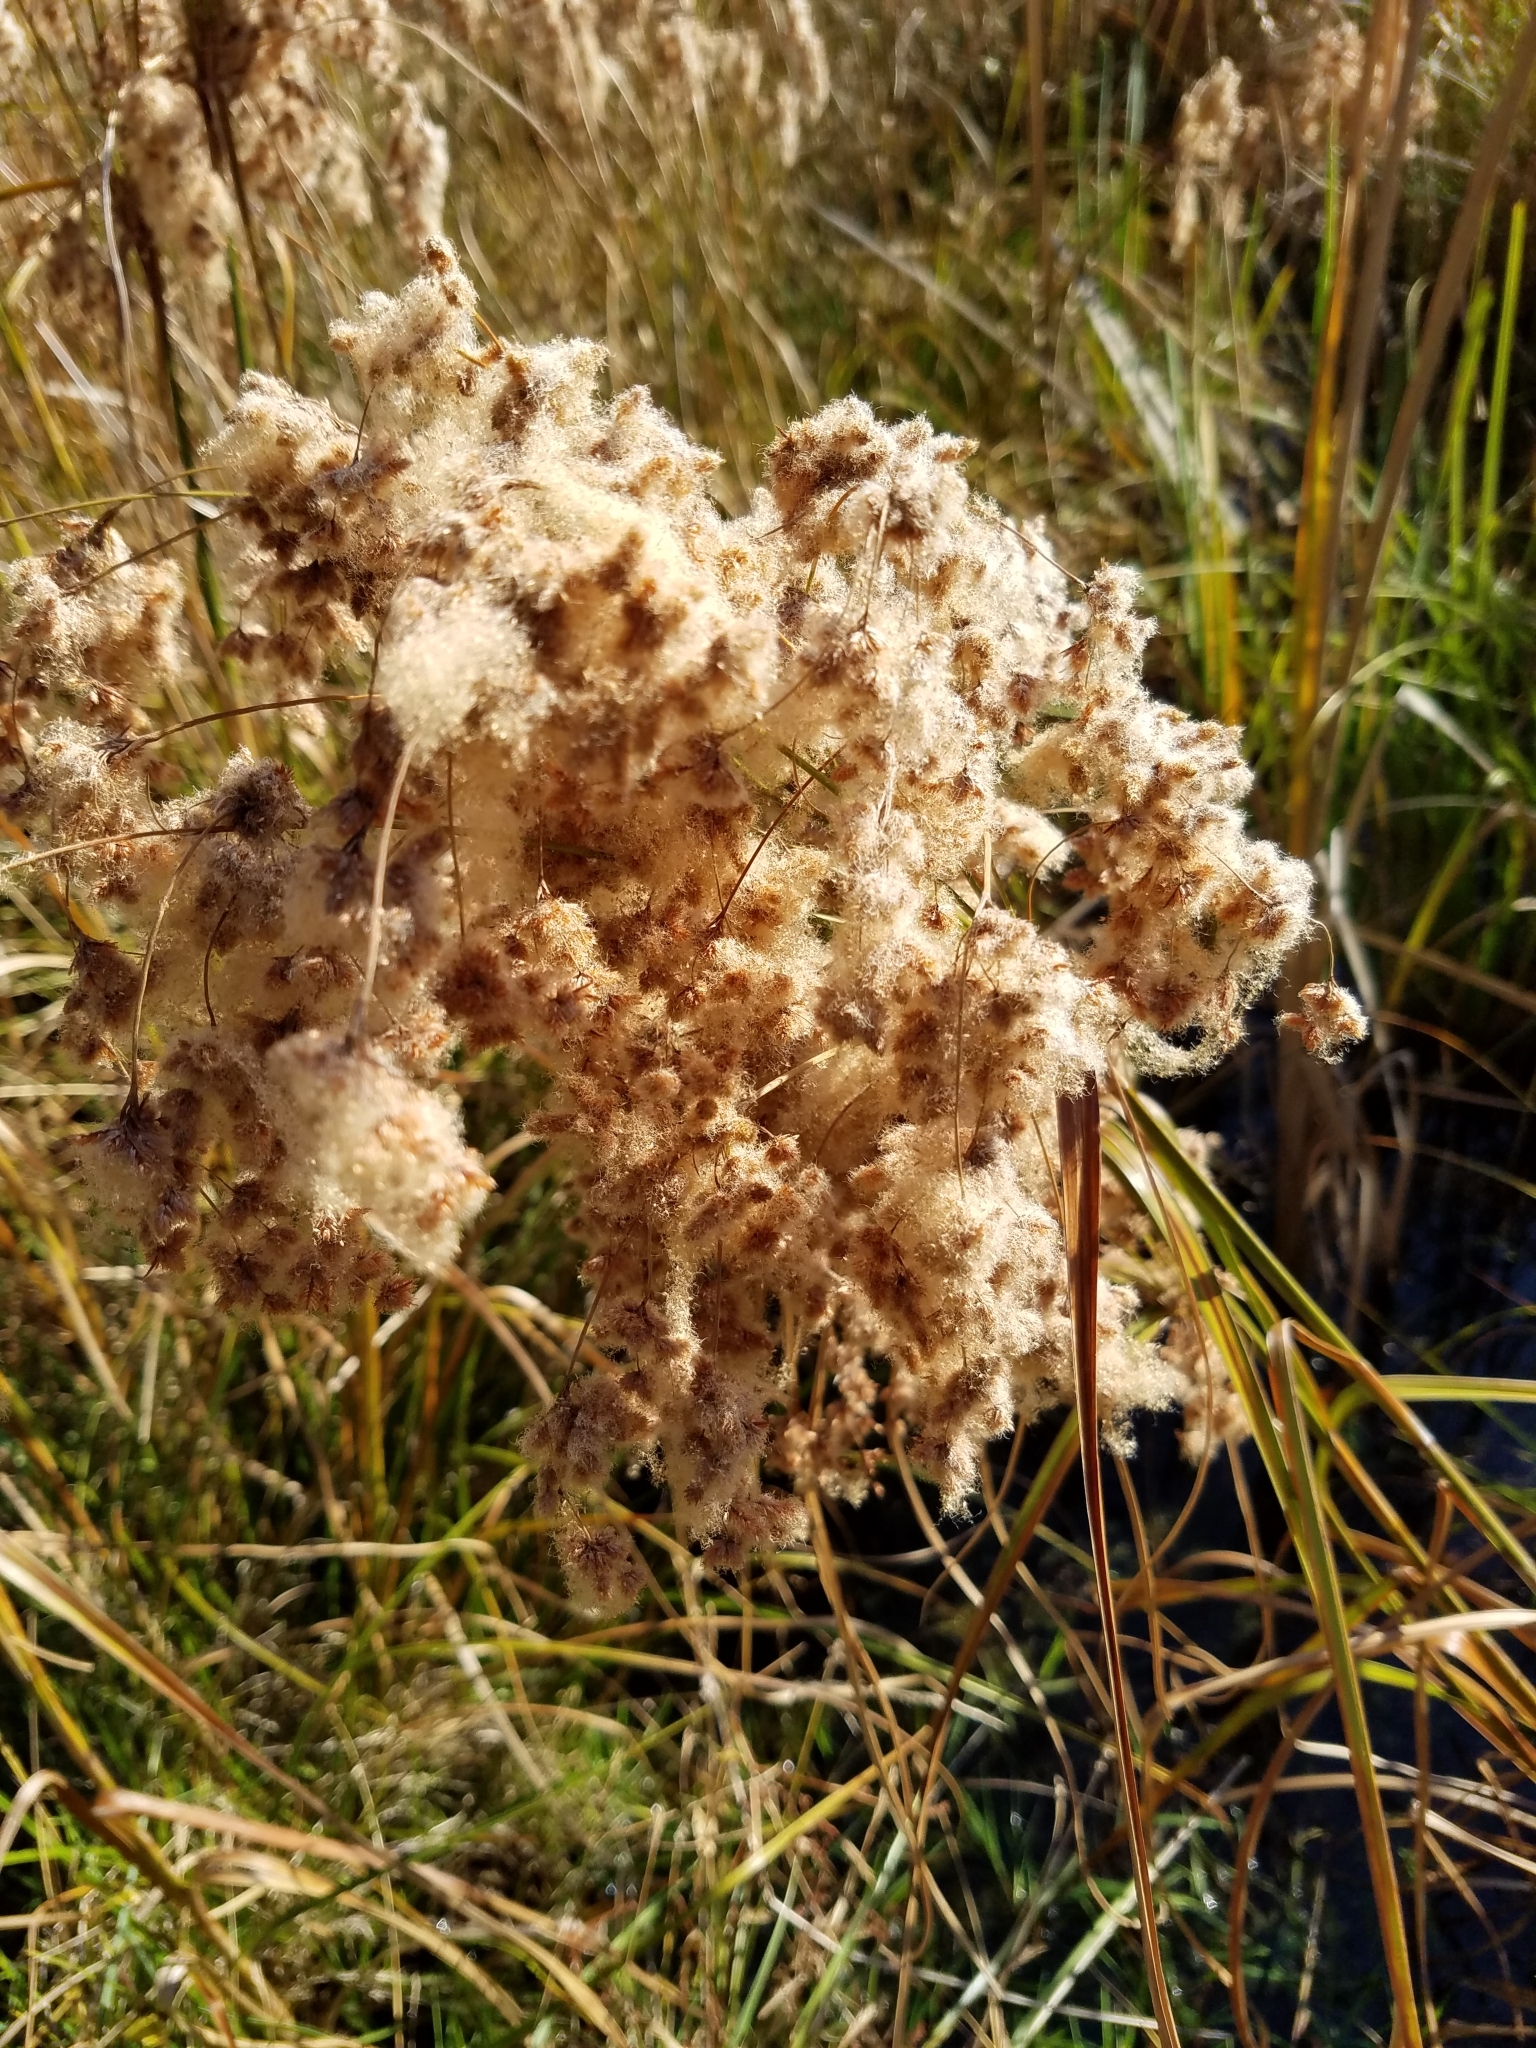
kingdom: Plantae
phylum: Tracheophyta
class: Liliopsida
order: Poales
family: Cyperaceae
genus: Scirpus
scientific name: Scirpus cyperinus
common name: Black-sheathed bulrush
